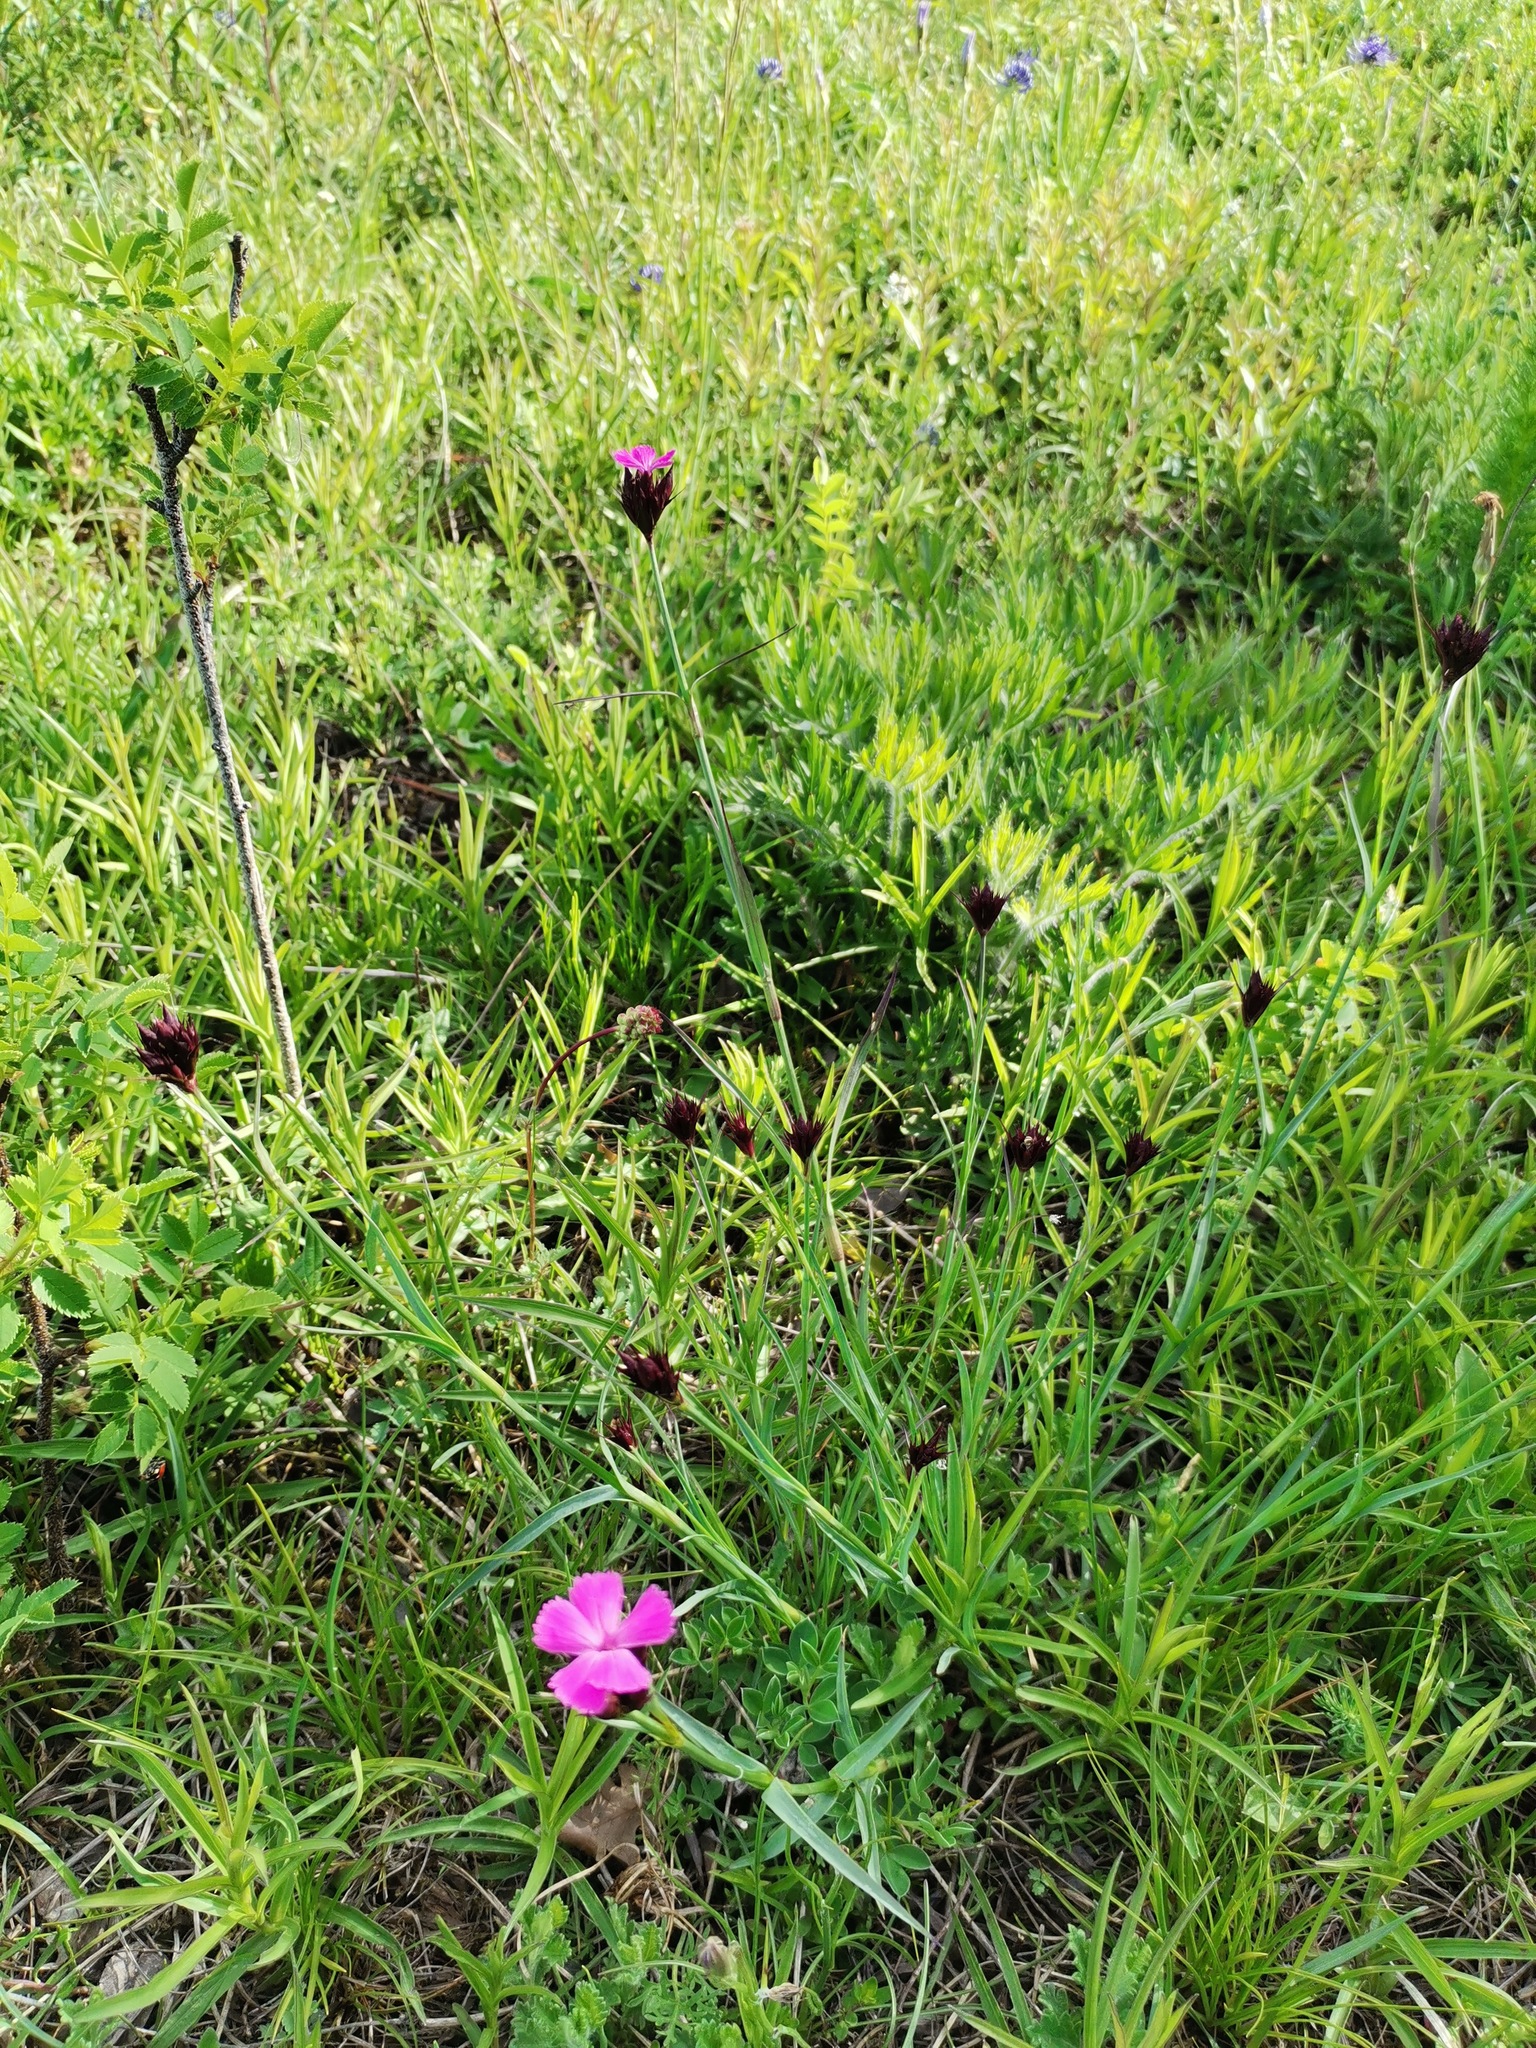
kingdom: Plantae
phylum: Tracheophyta
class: Magnoliopsida
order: Caryophyllales
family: Caryophyllaceae
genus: Dianthus
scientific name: Dianthus carthusianorum
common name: Carthusian pink
